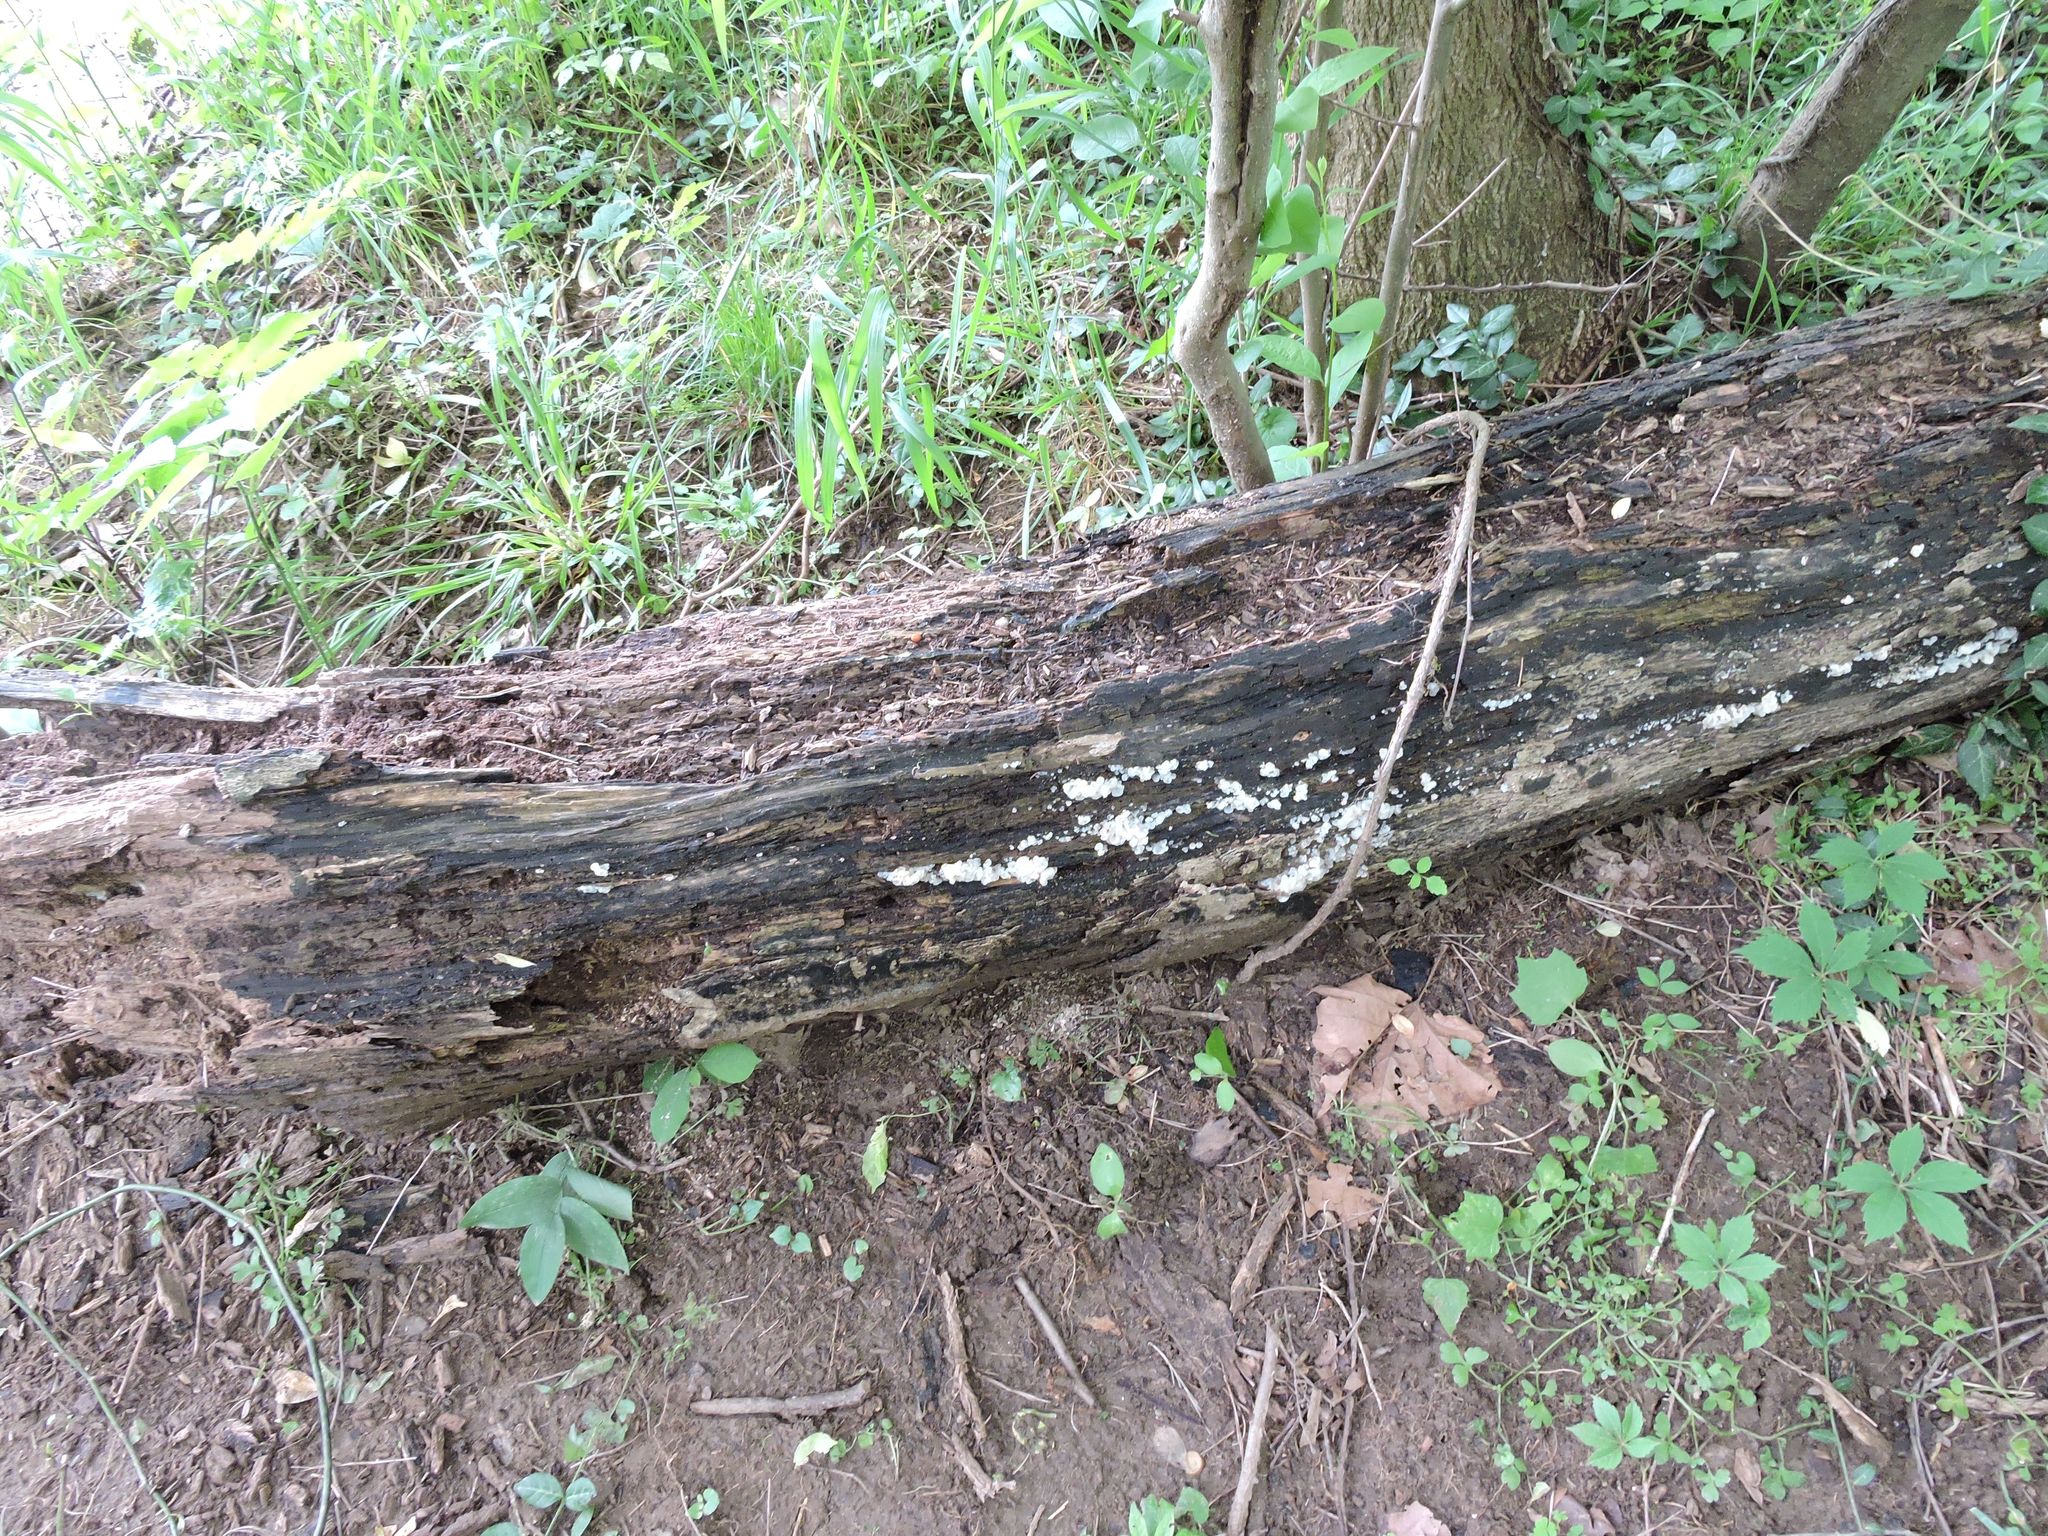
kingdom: Fungi
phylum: Basidiomycota
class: Tremellomycetes
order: Tremellales
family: Tremellaceae
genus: Tremella
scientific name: Tremella fuciformis
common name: Snow fungus
